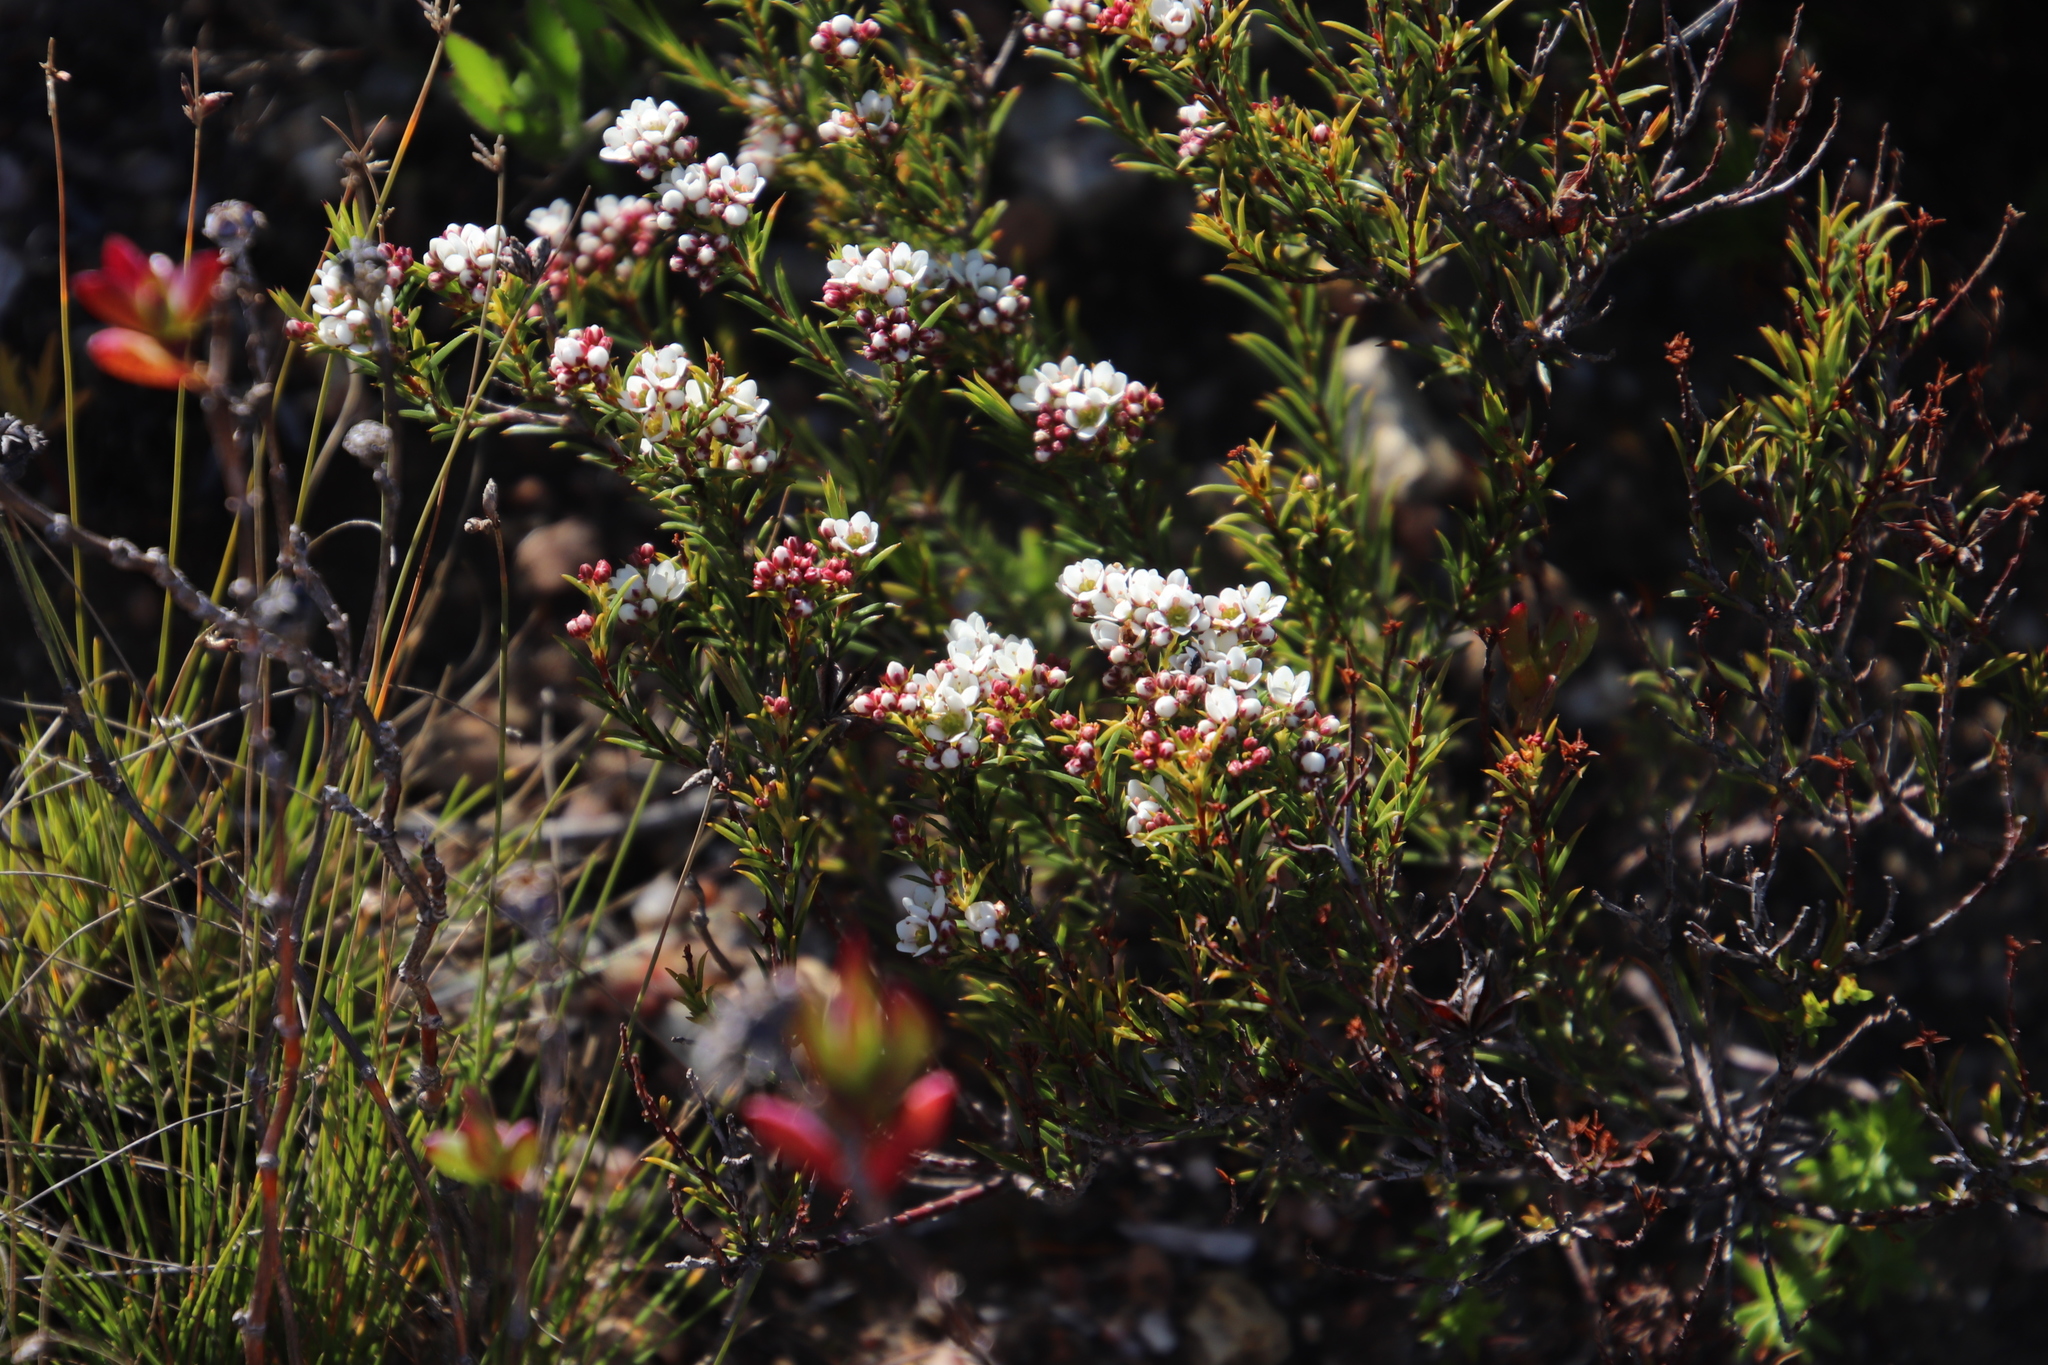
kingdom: Plantae
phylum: Tracheophyta
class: Magnoliopsida
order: Sapindales
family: Rutaceae
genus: Diosma
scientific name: Diosma hirsuta
